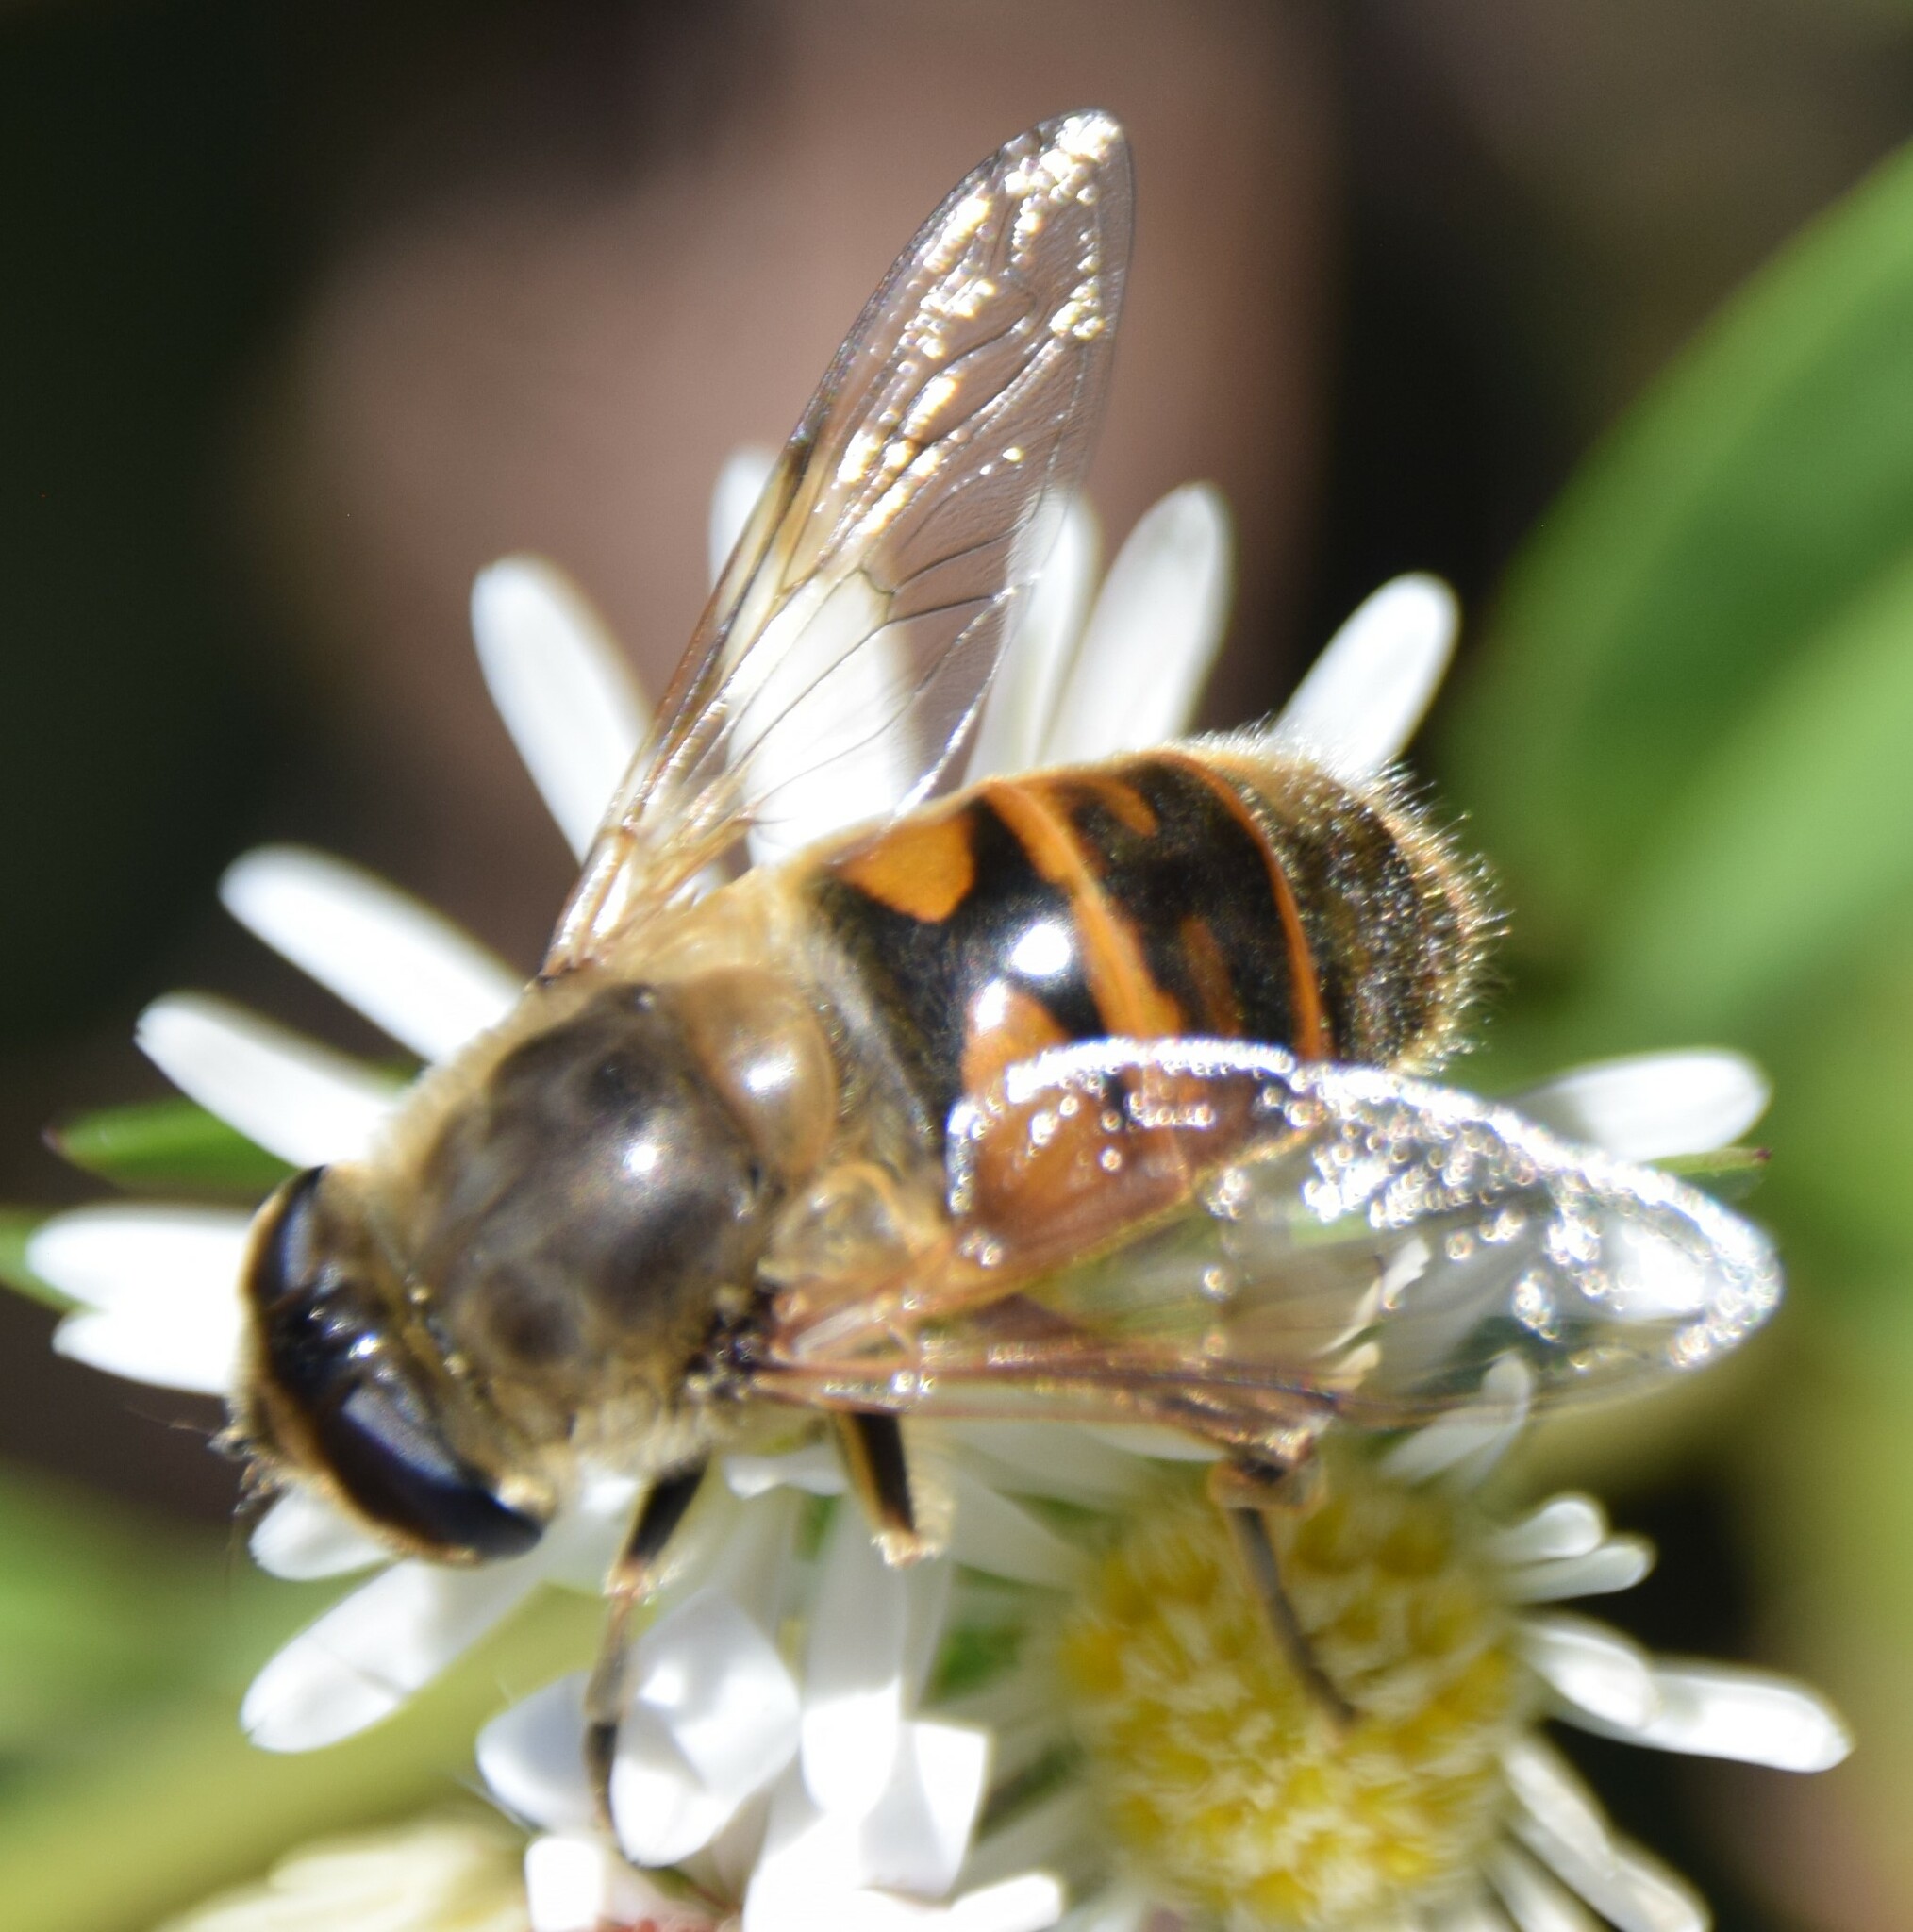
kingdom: Animalia
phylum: Arthropoda
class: Insecta
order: Diptera
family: Syrphidae
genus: Eristalis
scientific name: Eristalis tenax
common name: Drone fly
